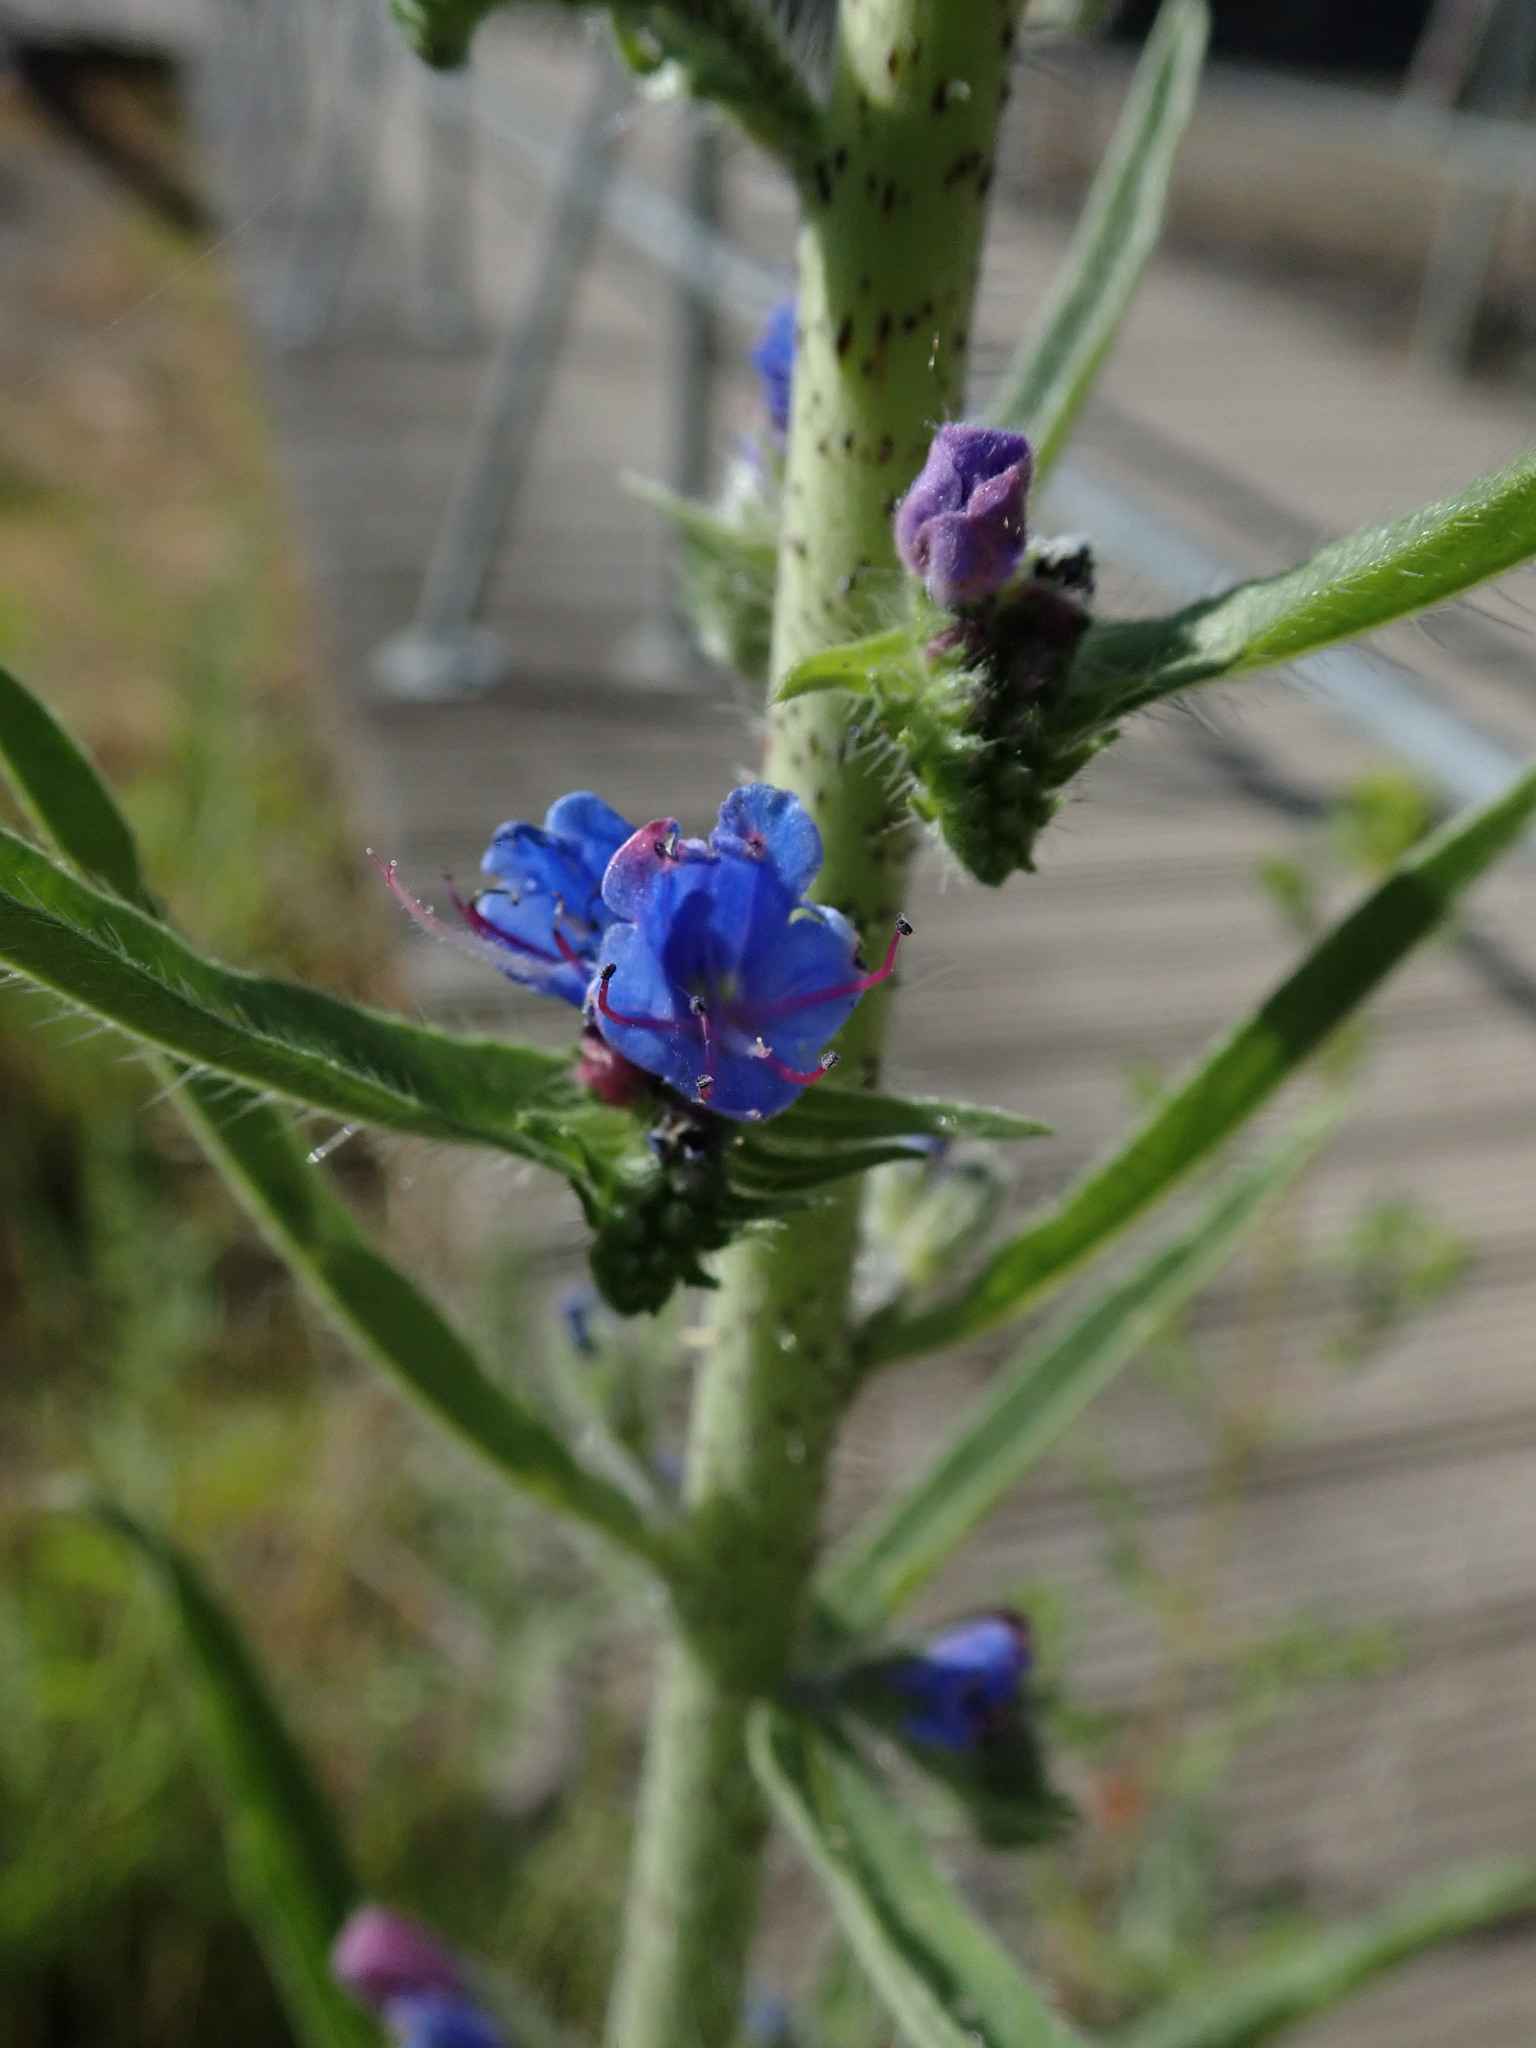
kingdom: Plantae
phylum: Tracheophyta
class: Magnoliopsida
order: Boraginales
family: Boraginaceae
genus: Echium
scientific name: Echium vulgare
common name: Common viper's bugloss
